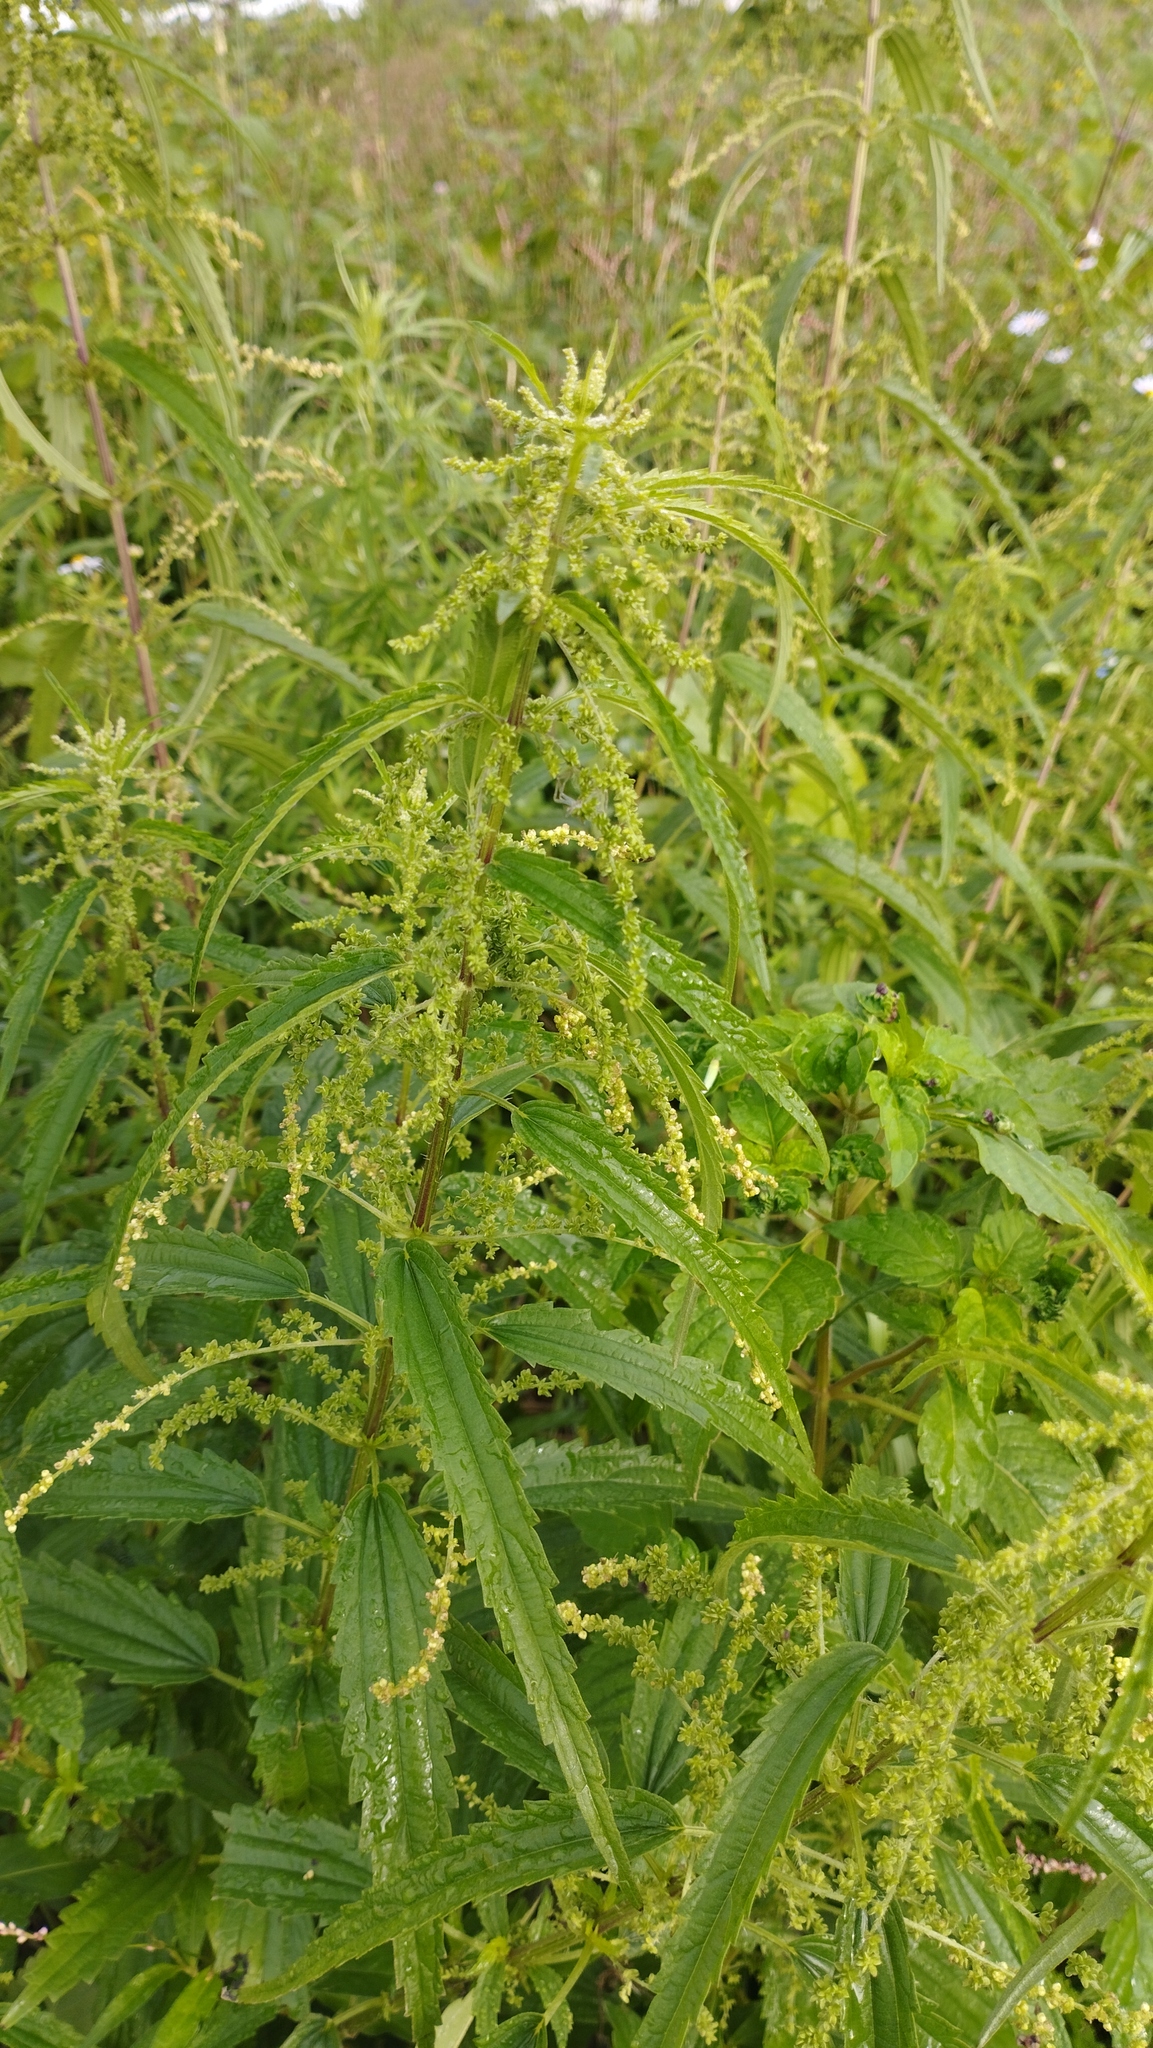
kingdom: Plantae
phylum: Tracheophyta
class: Magnoliopsida
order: Rosales
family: Urticaceae
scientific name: Urticaceae
